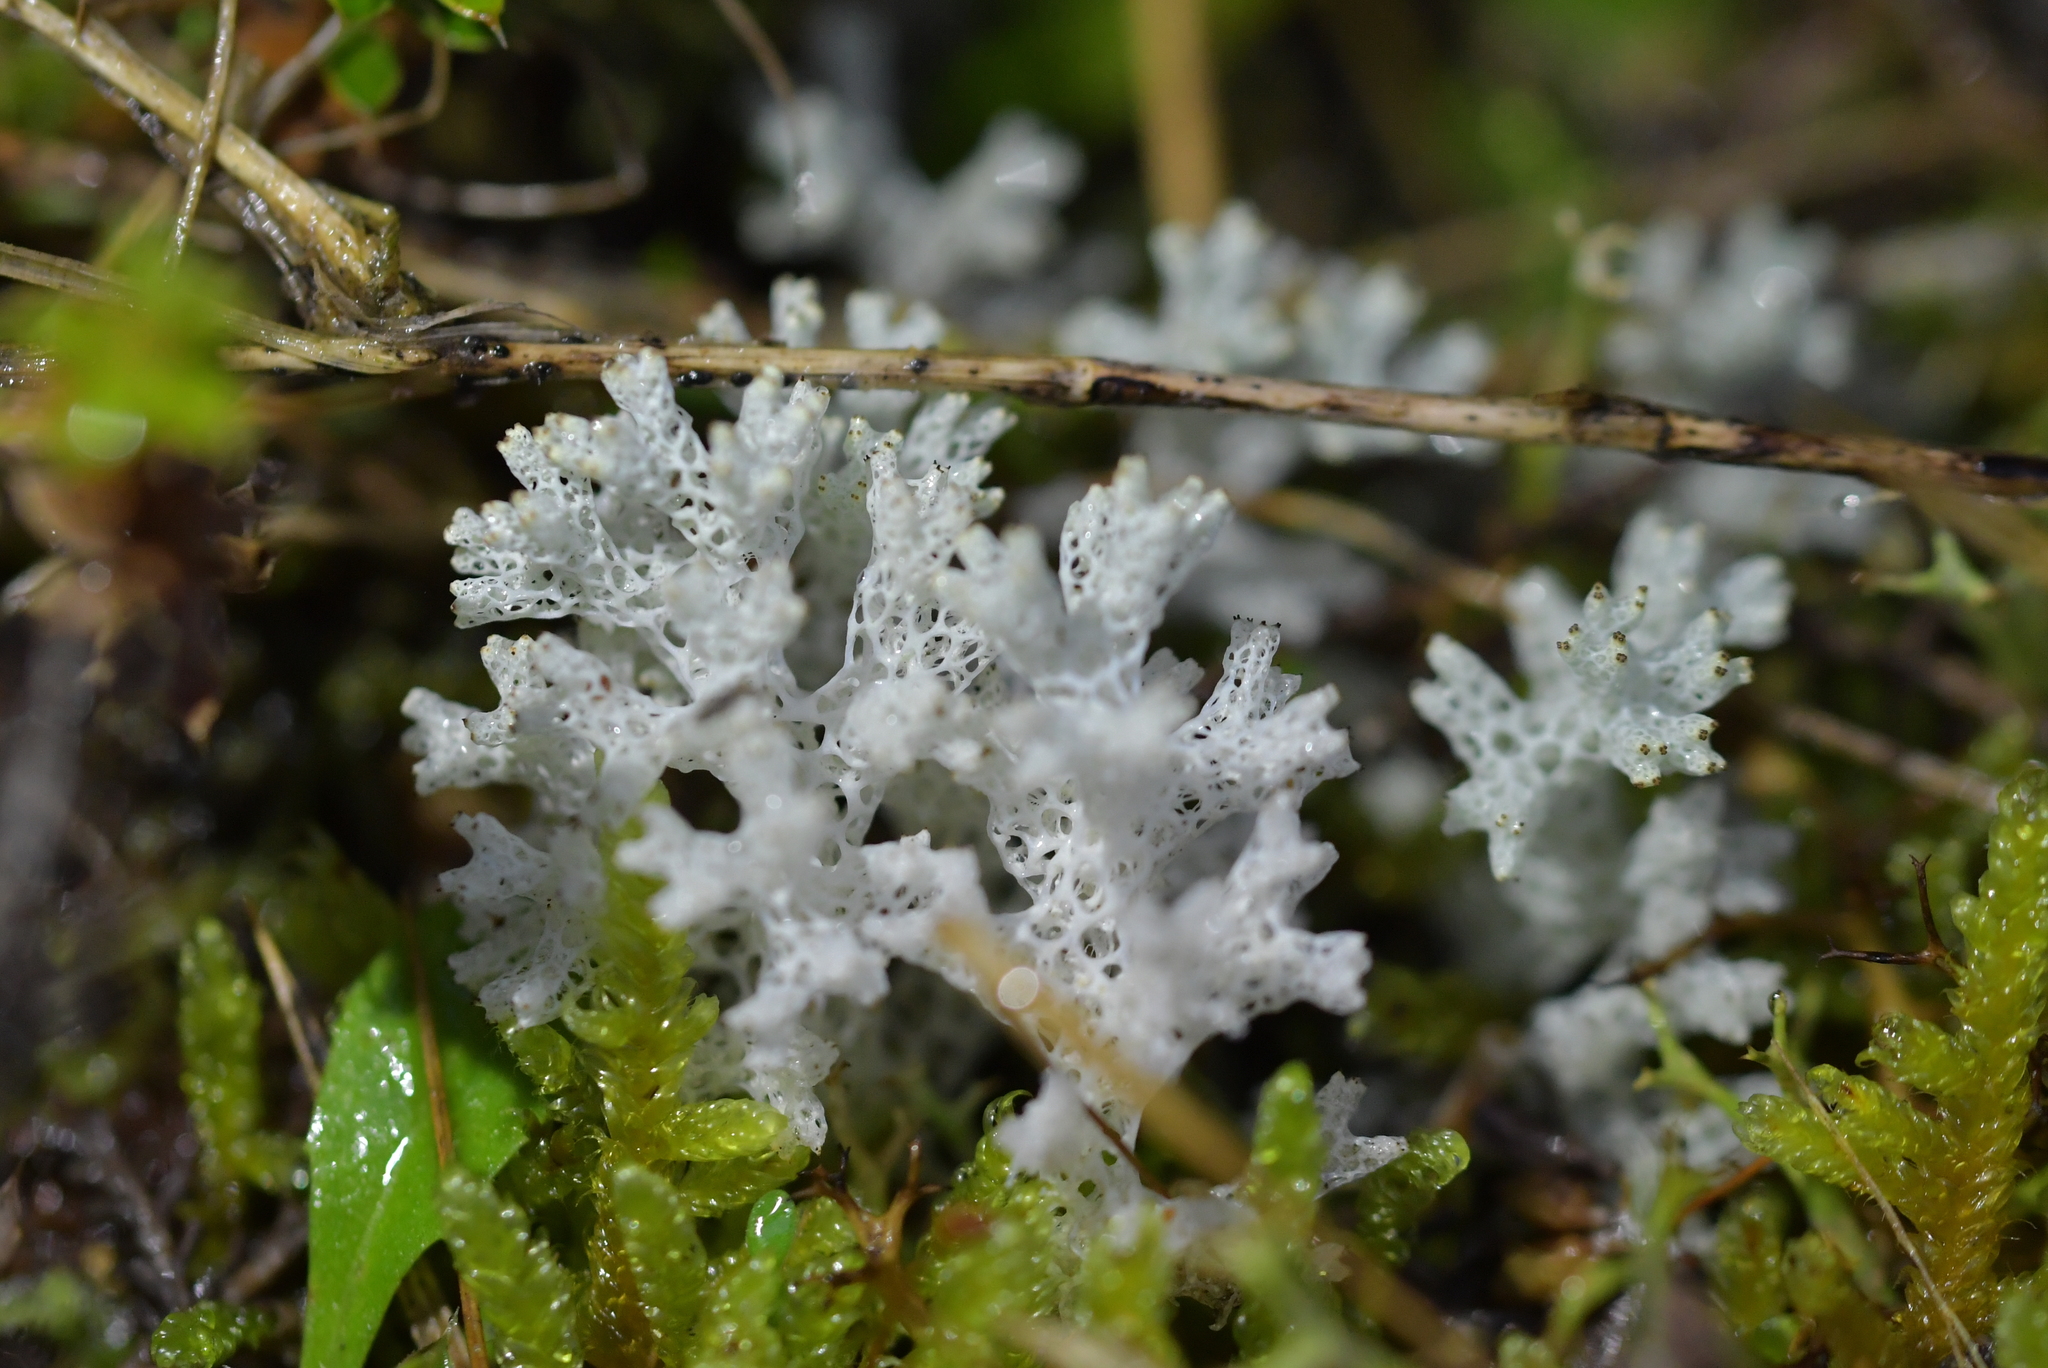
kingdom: Fungi
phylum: Ascomycota
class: Lecanoromycetes
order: Lecanorales
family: Cladoniaceae
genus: Pulchrocladia
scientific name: Pulchrocladia retipora
